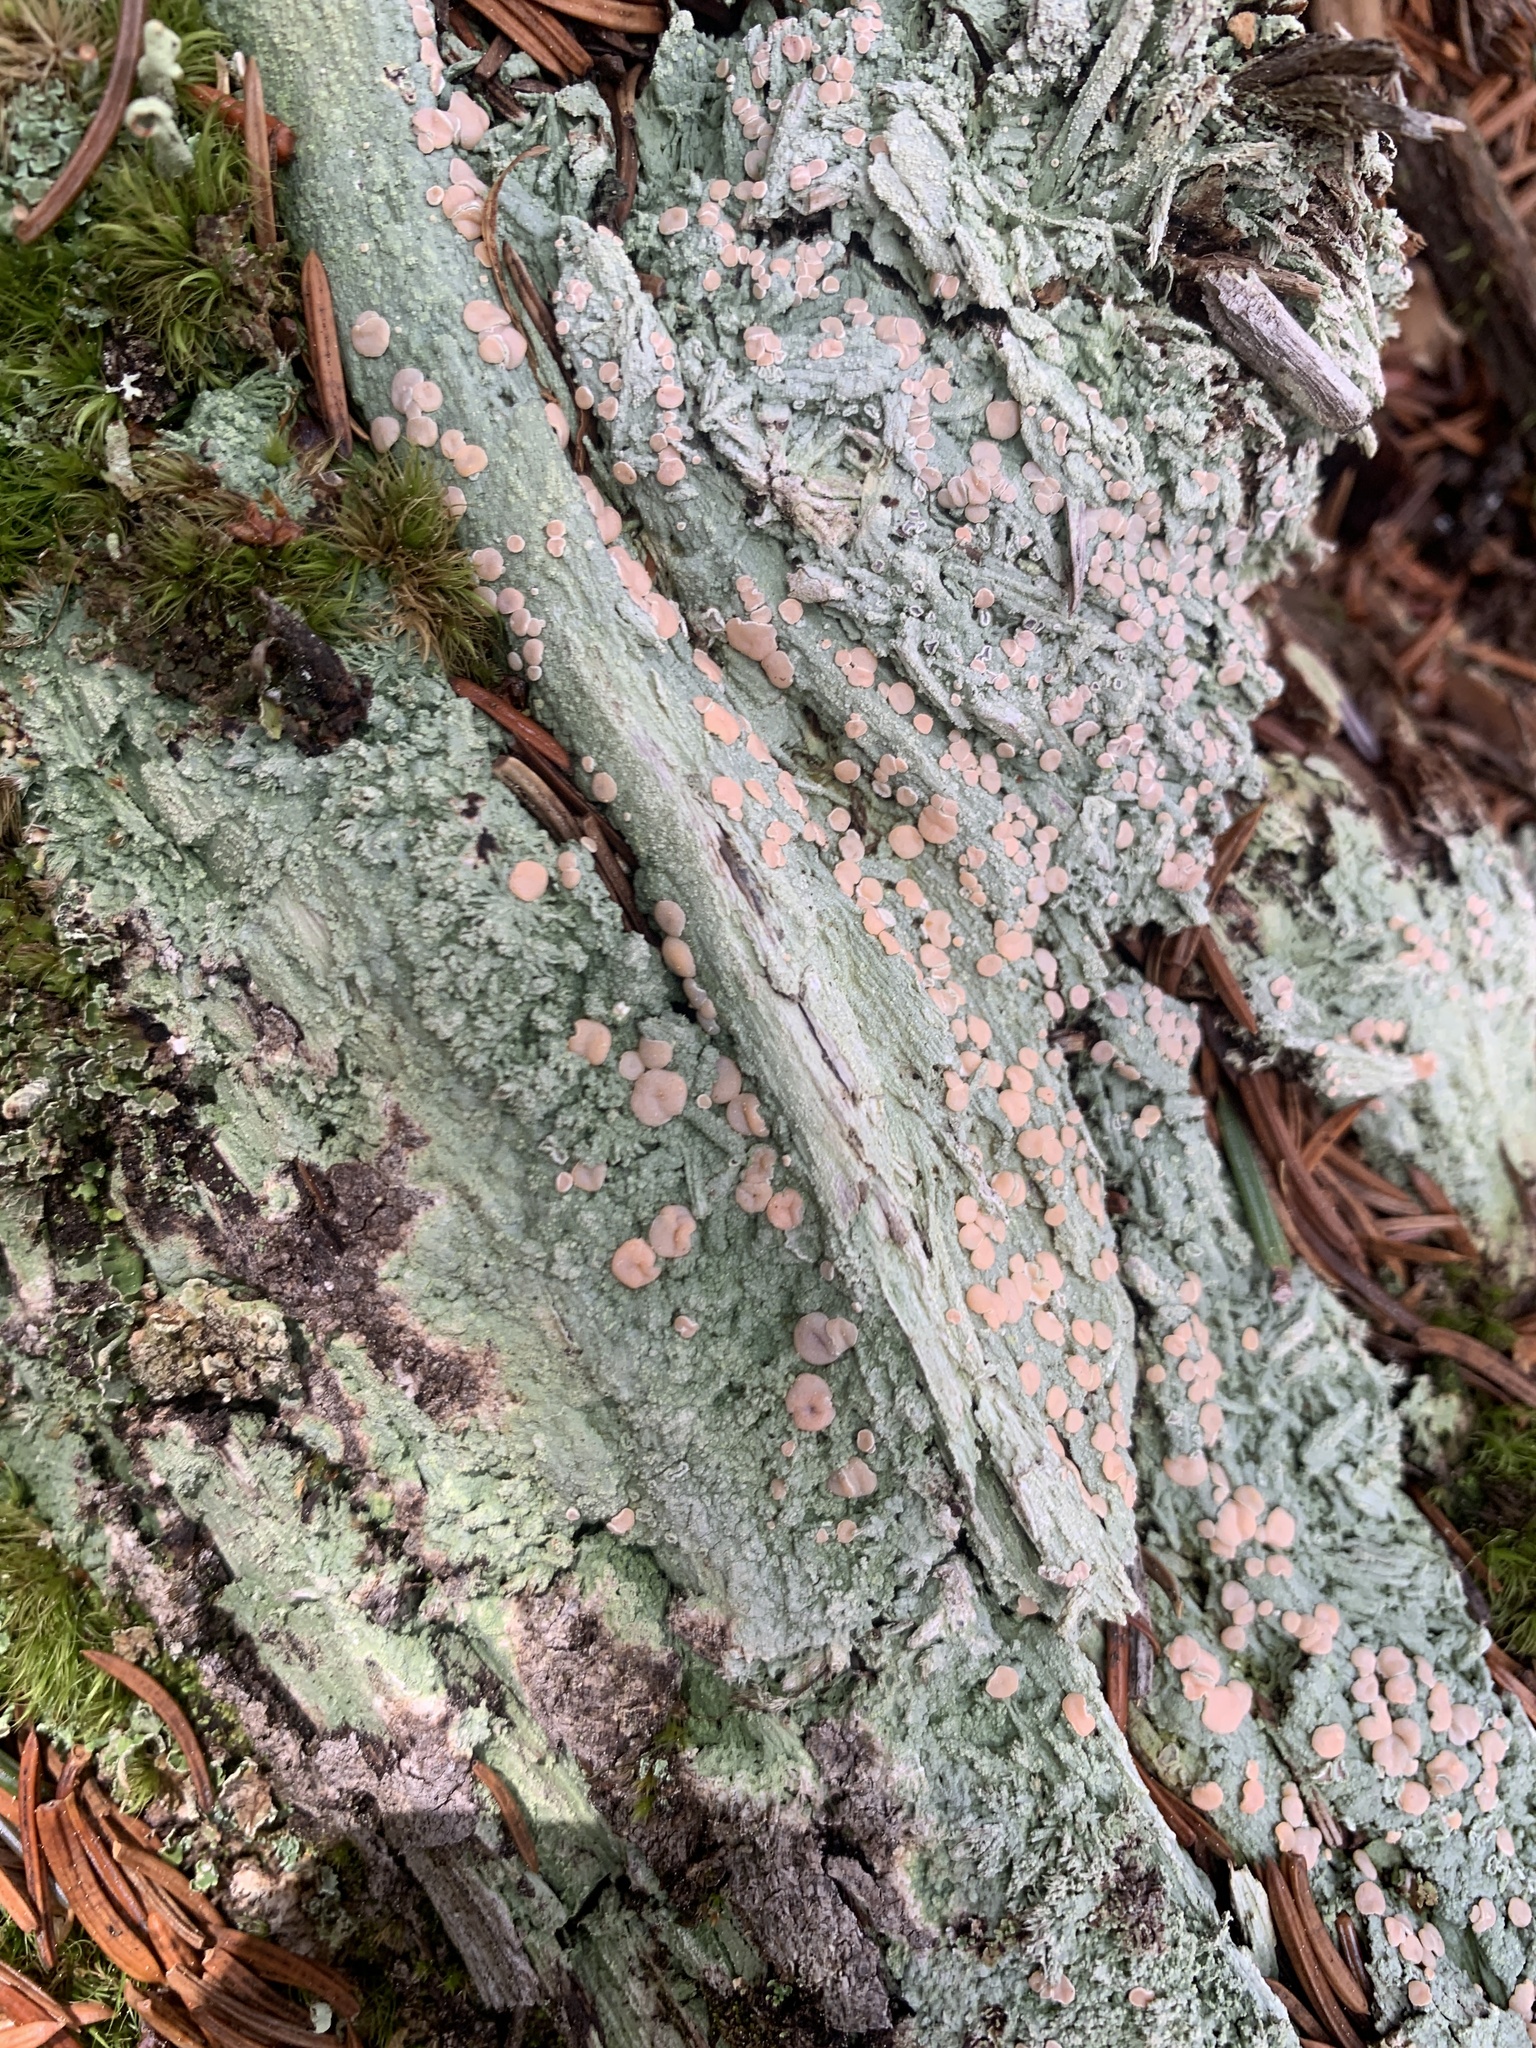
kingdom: Fungi
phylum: Ascomycota
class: Lecanoromycetes
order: Pertusariales
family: Icmadophilaceae
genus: Icmadophila
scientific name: Icmadophila ericetorum
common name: Candy lichen
